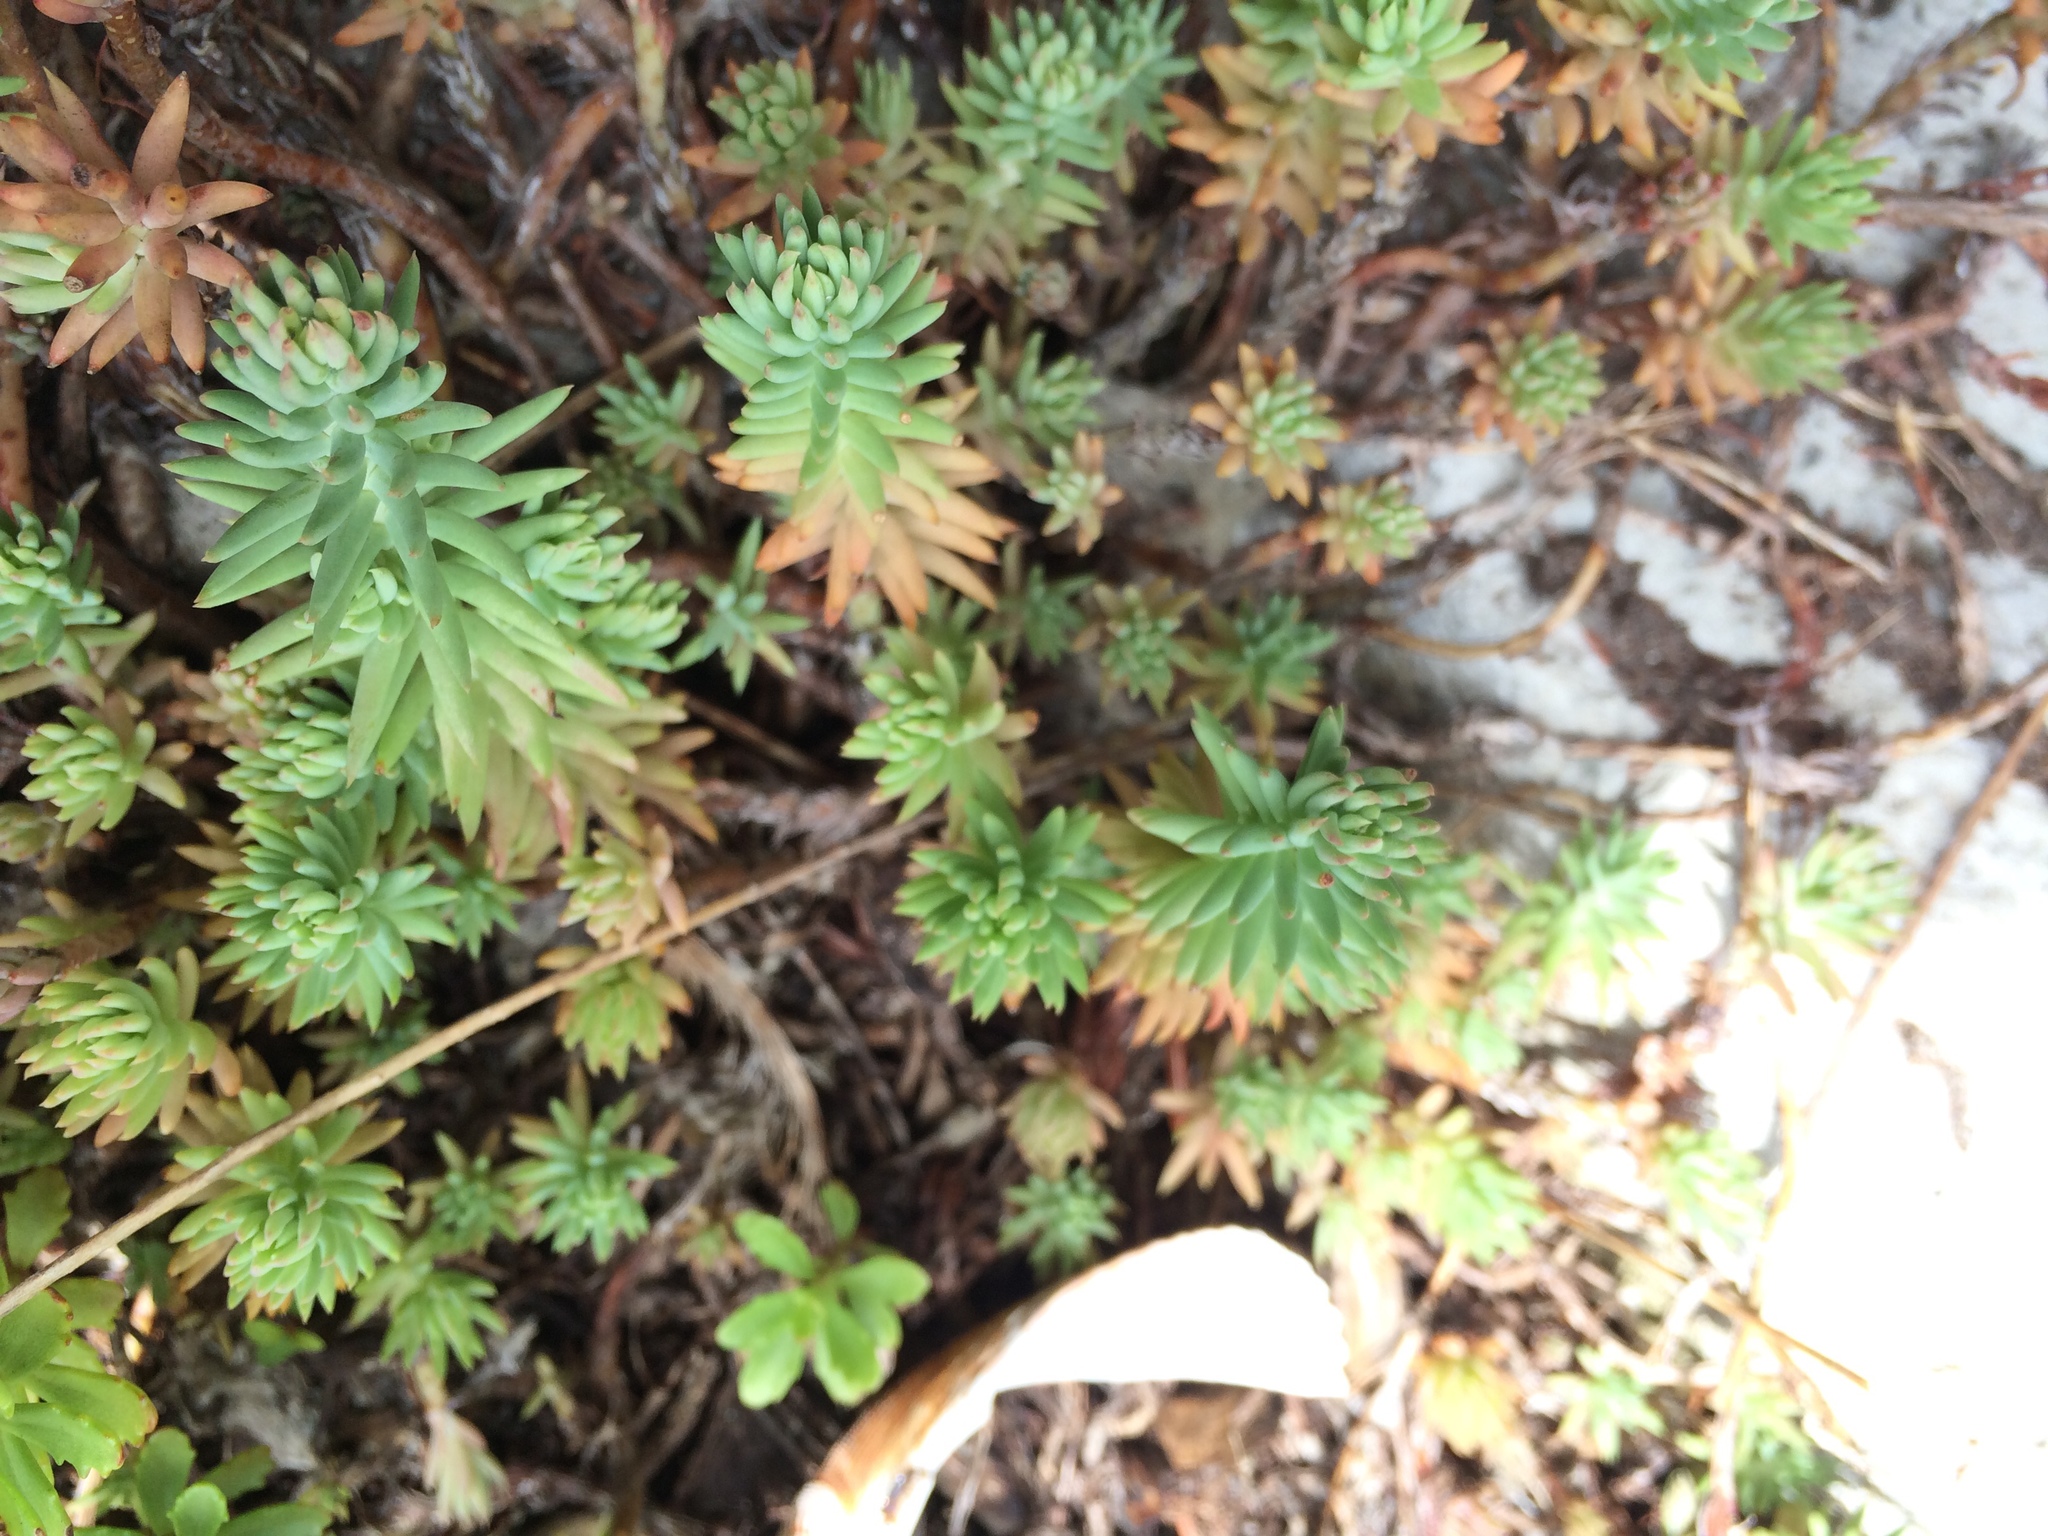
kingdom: Plantae
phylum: Tracheophyta
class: Magnoliopsida
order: Saxifragales
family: Crassulaceae
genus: Petrosedum
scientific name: Petrosedum
